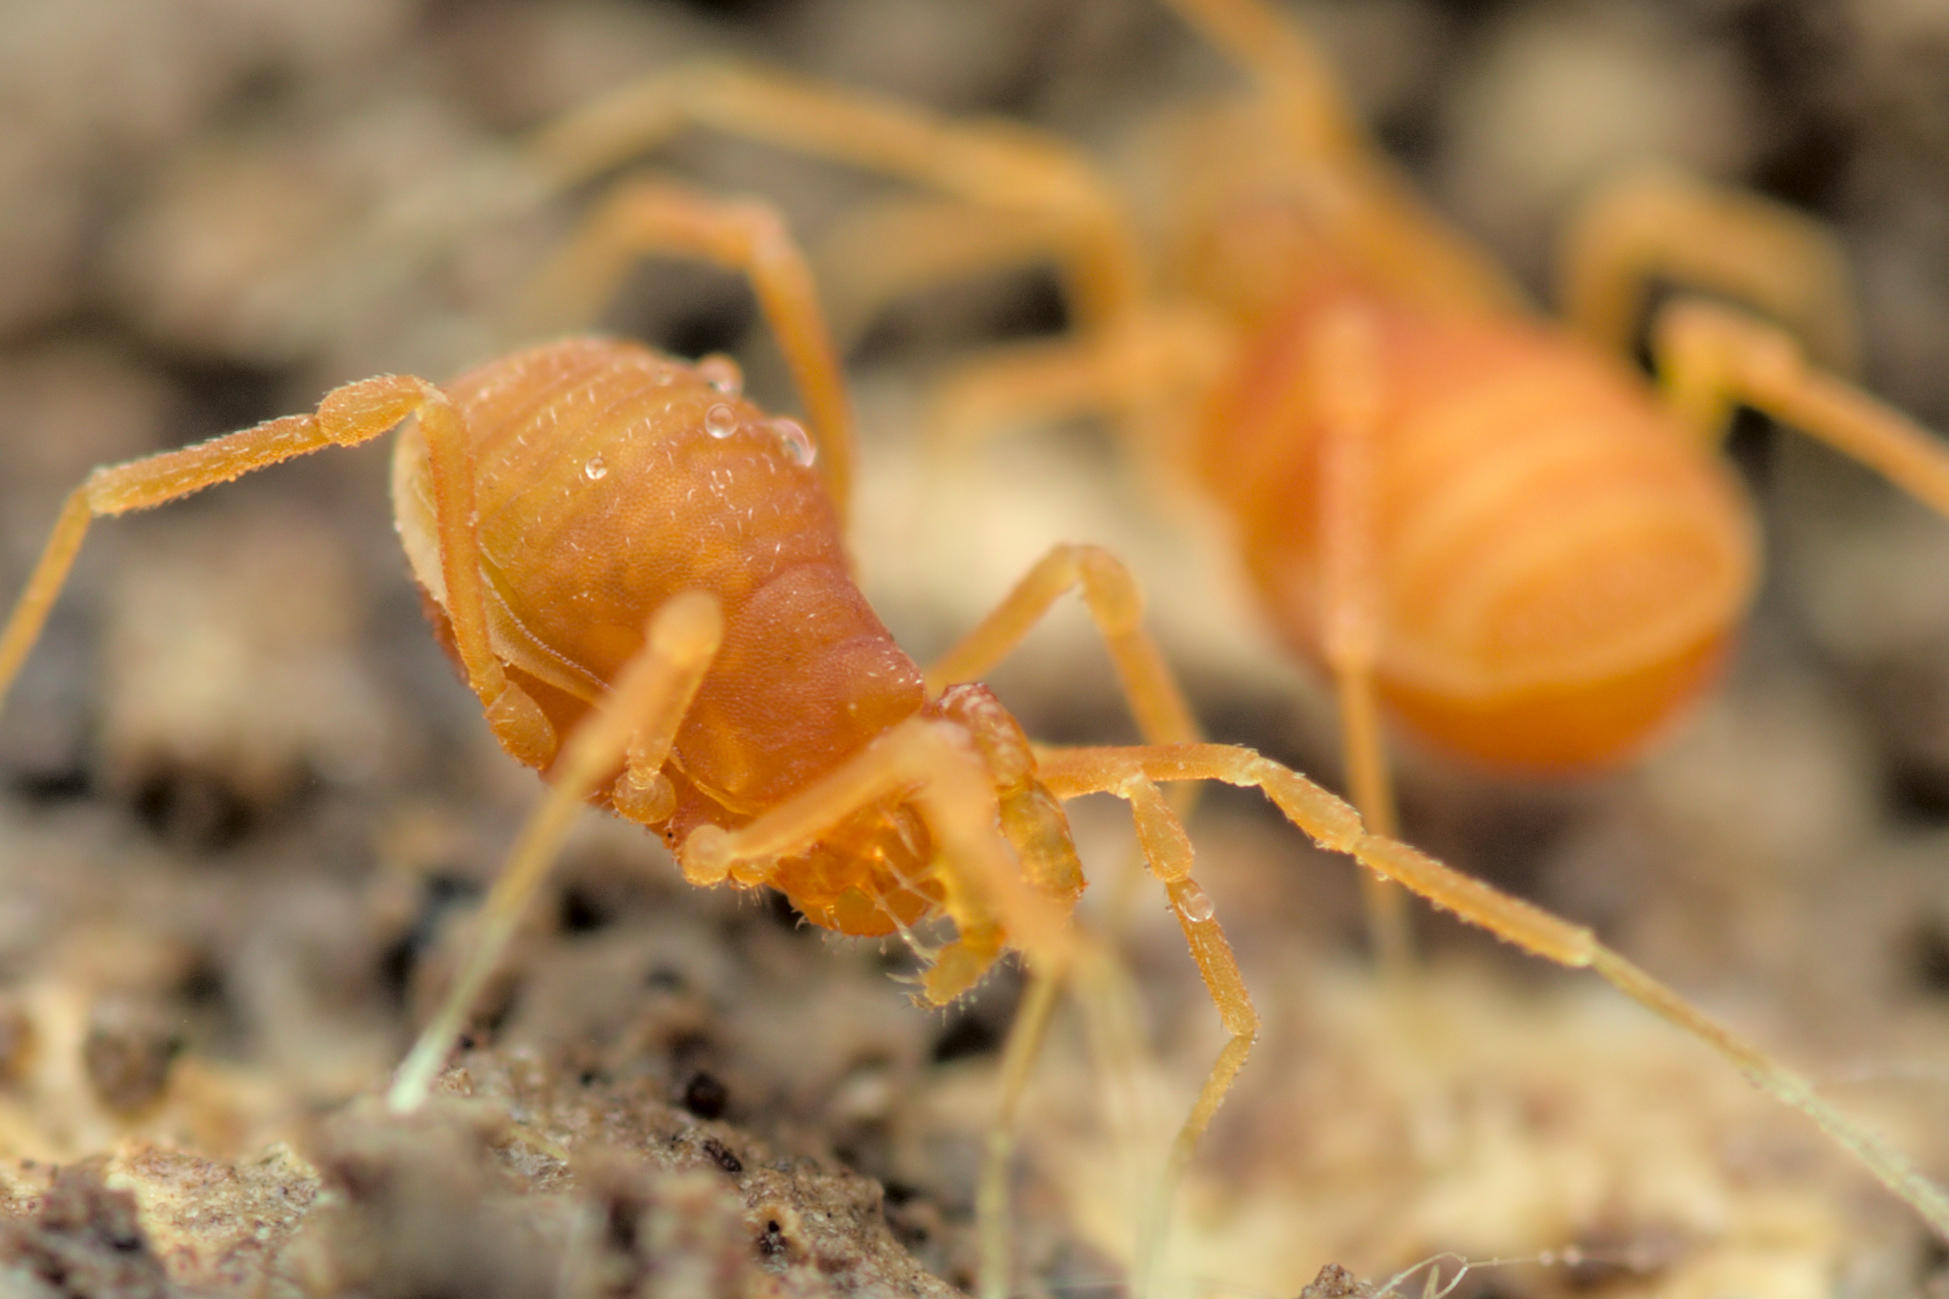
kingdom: Animalia
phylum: Arthropoda
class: Arachnida
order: Opiliones
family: Phalangodidae
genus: Scotolemon
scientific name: Scotolemon doriae
